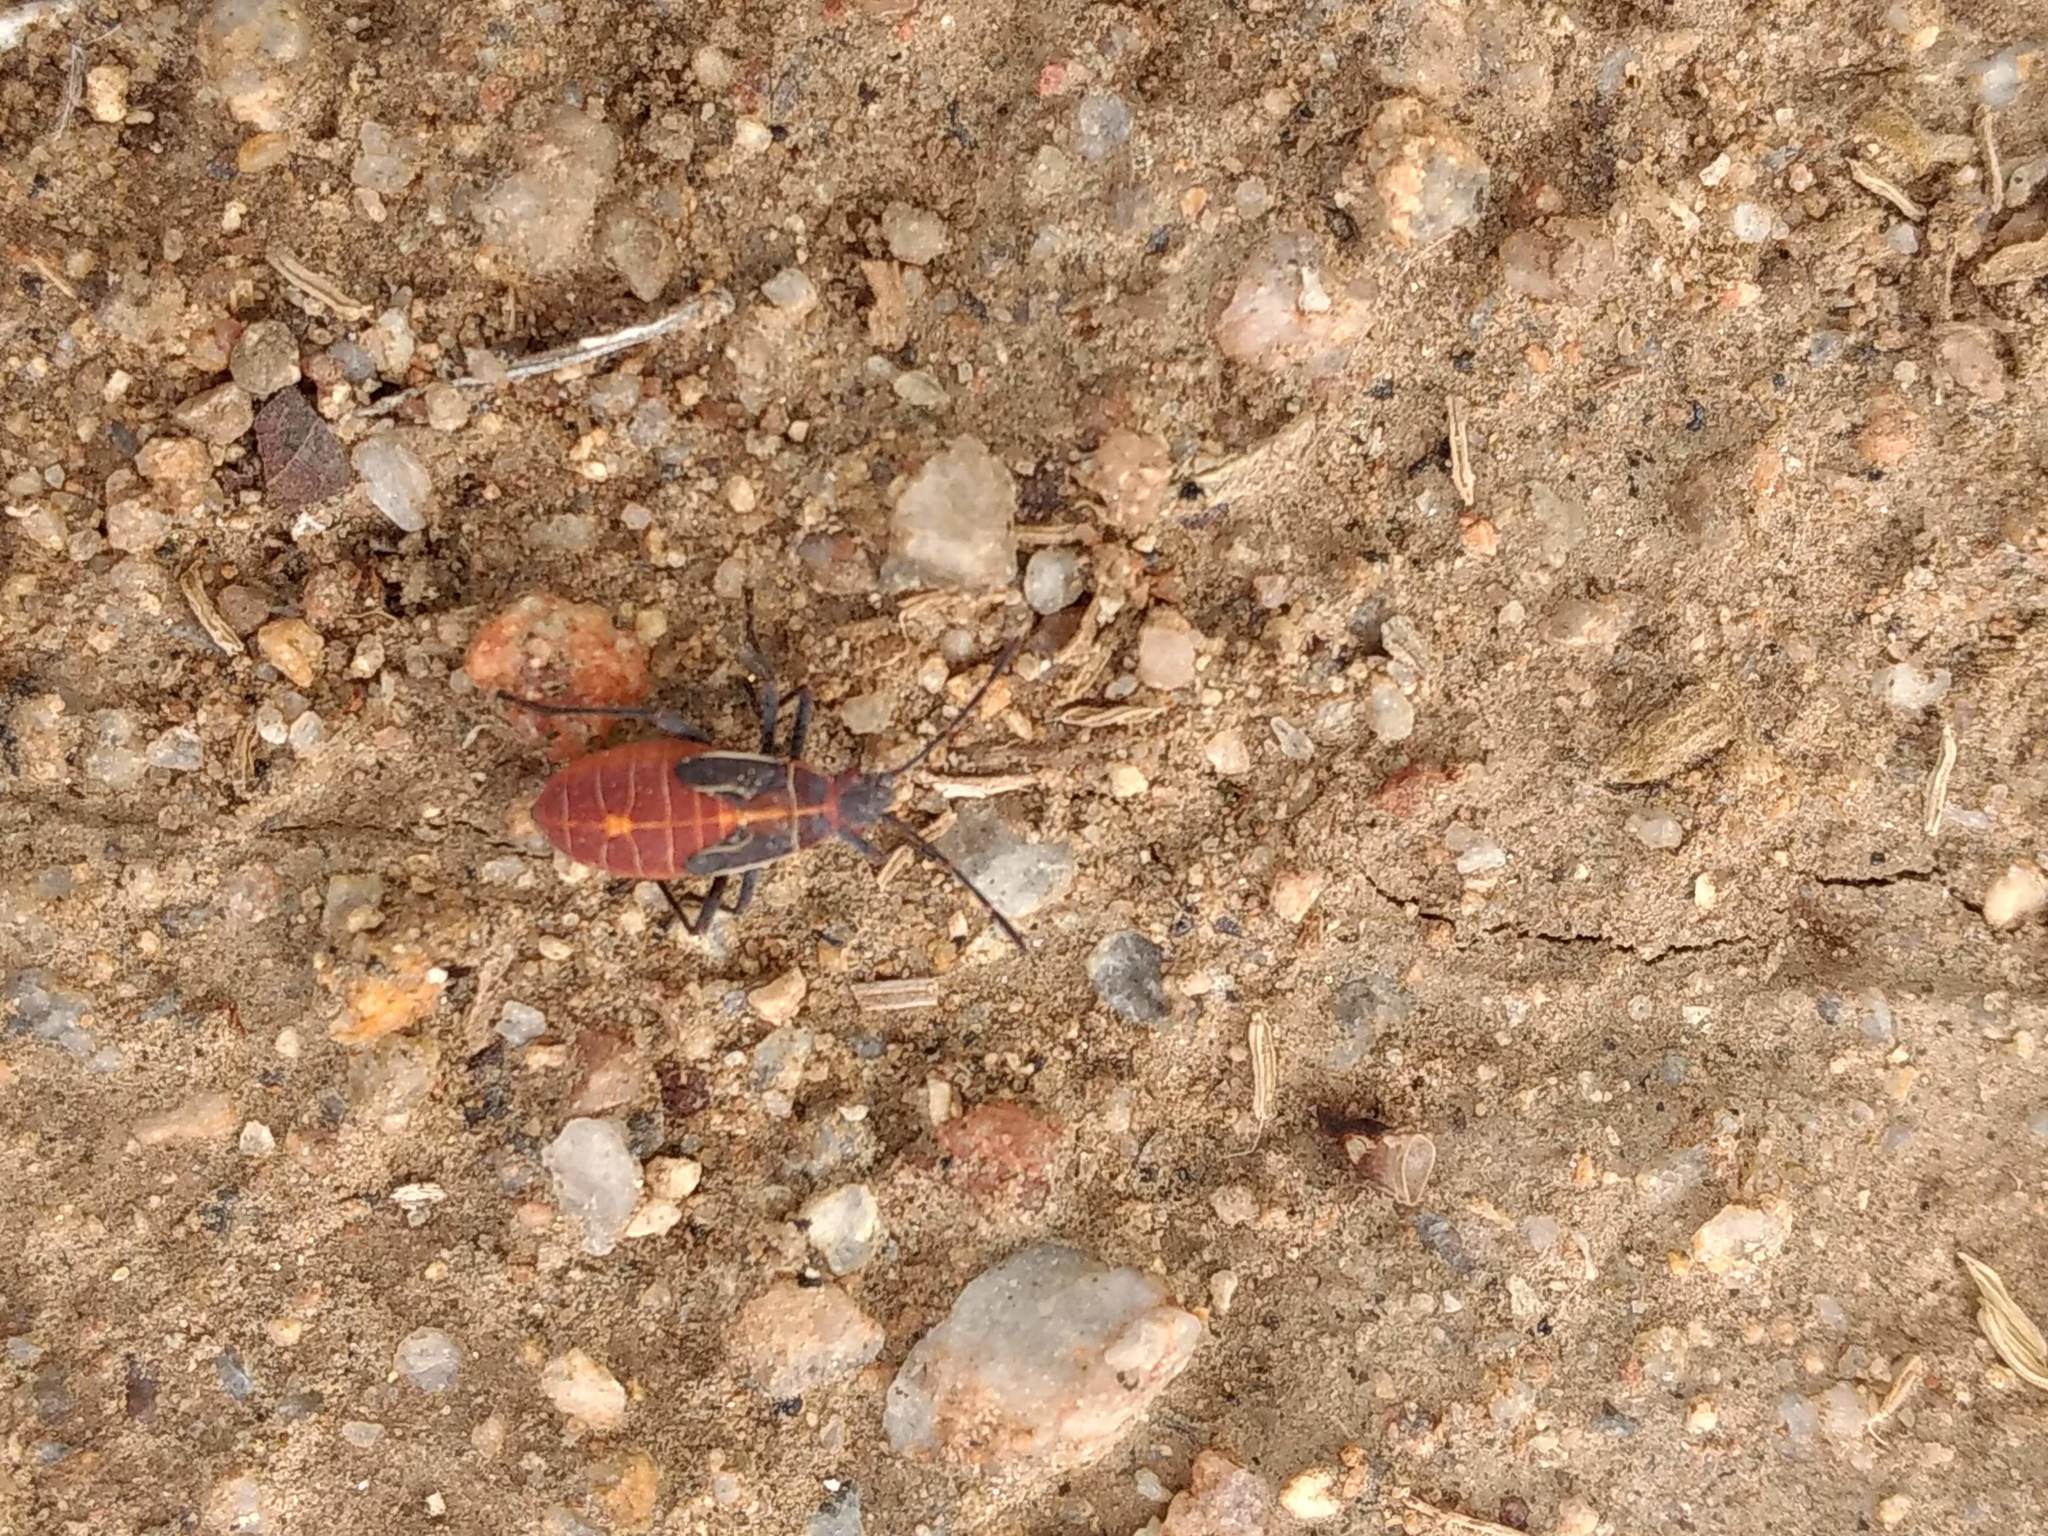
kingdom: Animalia
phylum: Arthropoda
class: Insecta
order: Hemiptera
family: Rhopalidae
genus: Boisea
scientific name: Boisea rubrolineata
